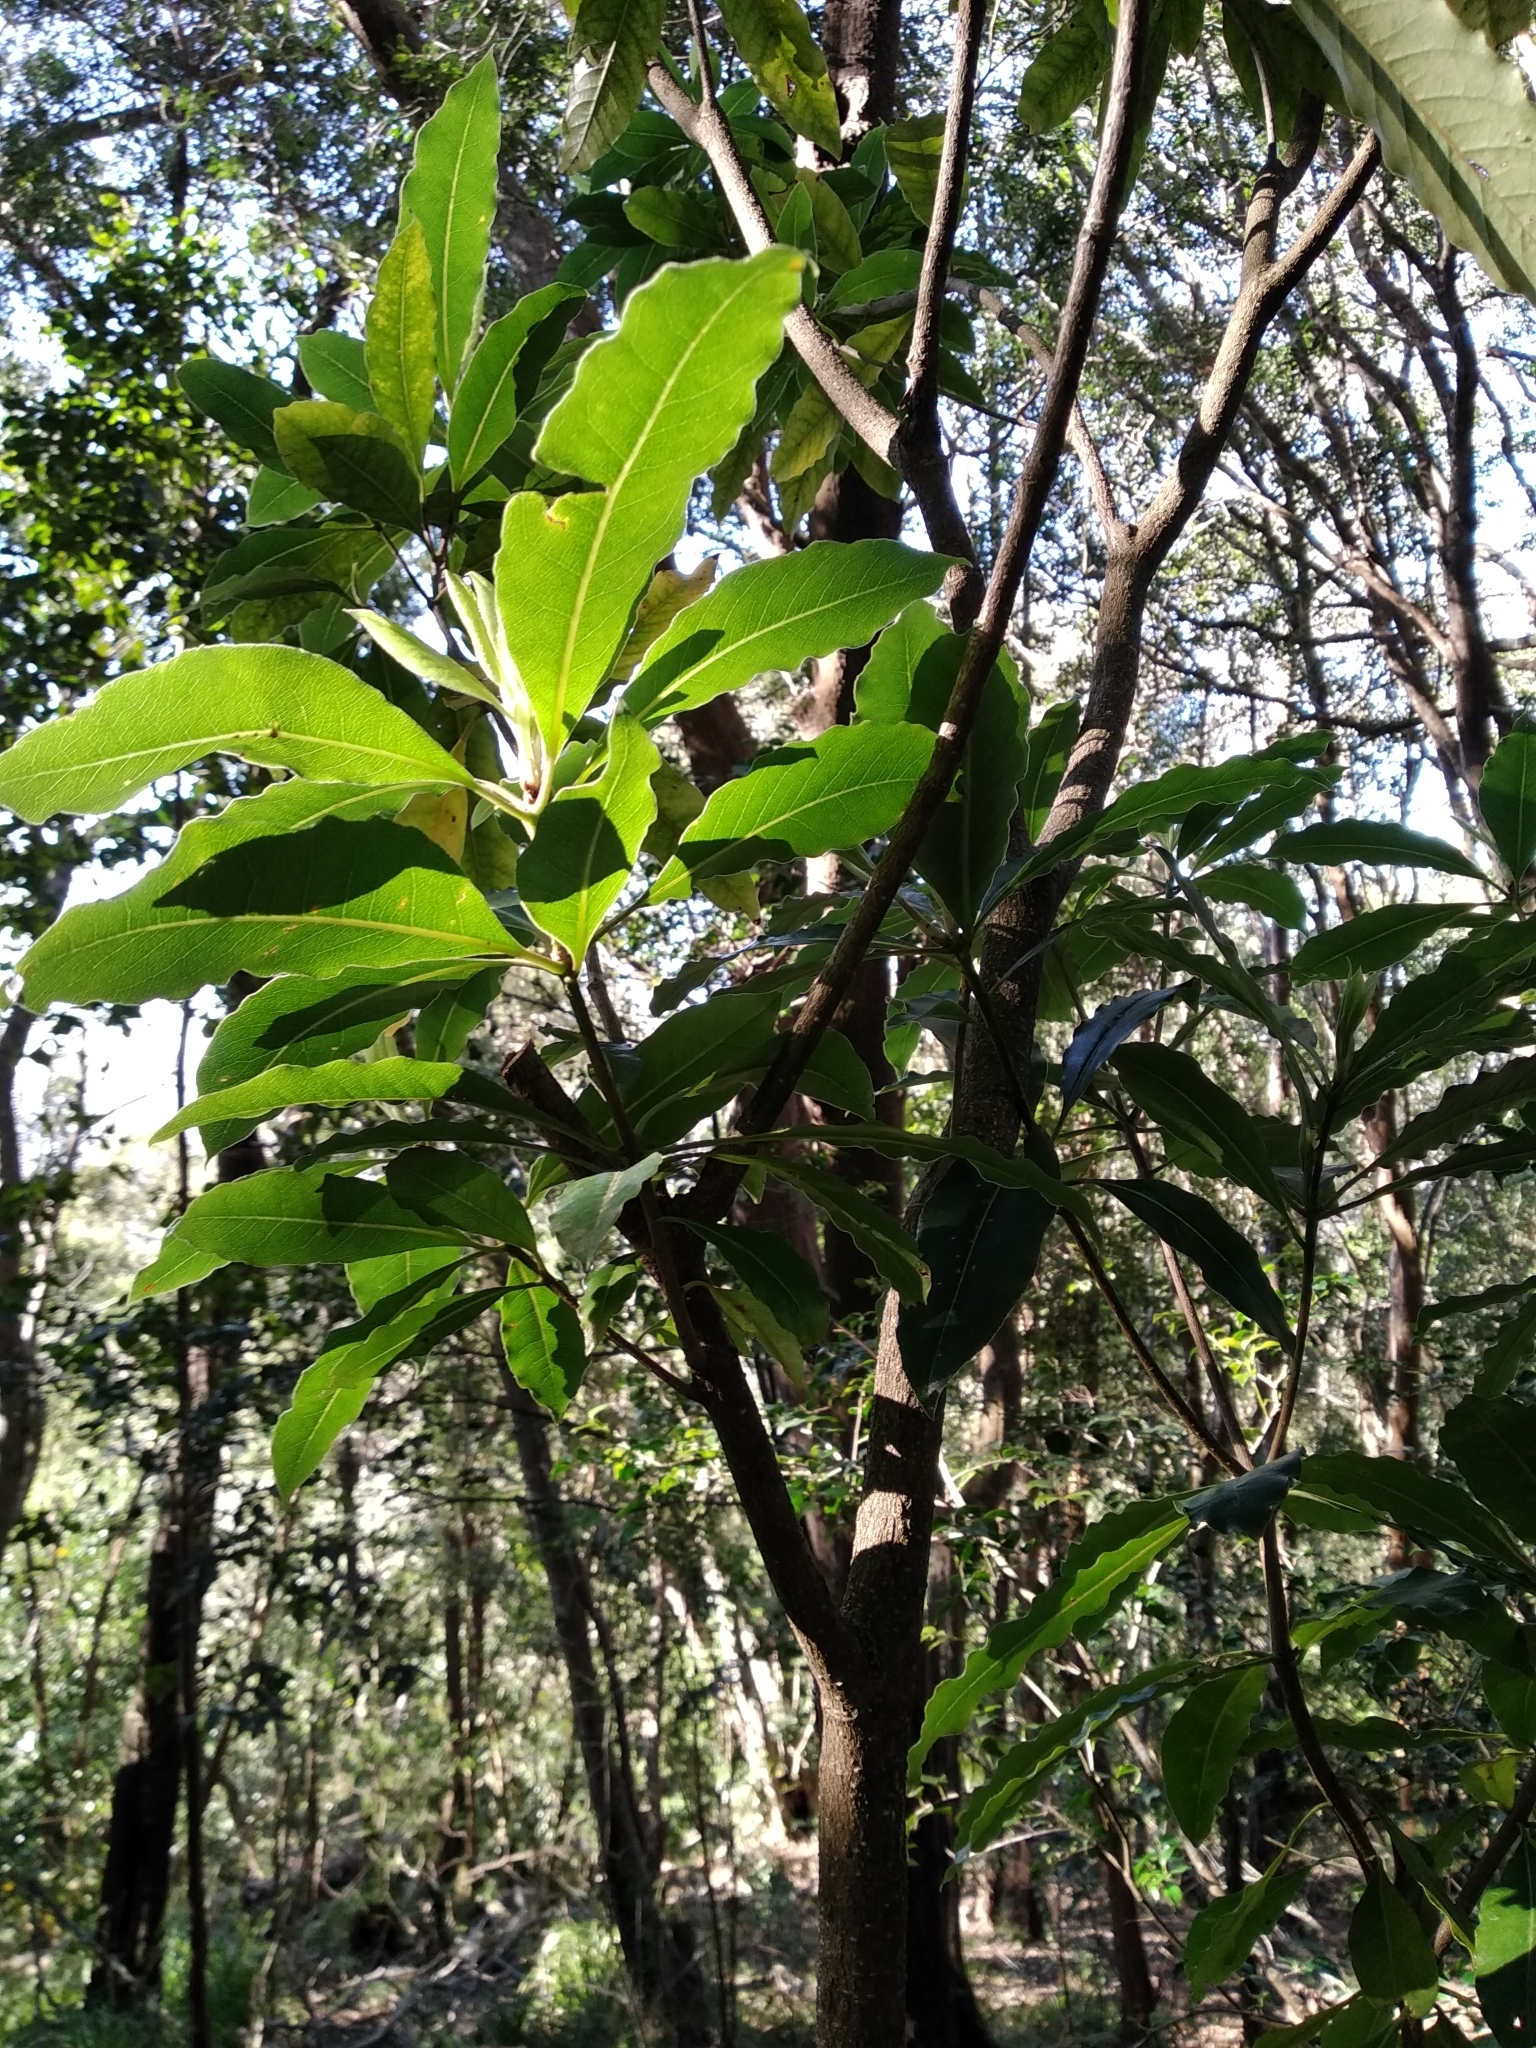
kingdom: Plantae
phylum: Tracheophyta
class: Magnoliopsida
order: Apiales
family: Pittosporaceae
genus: Pittosporum
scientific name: Pittosporum undulatum
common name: Australian cheesewood
